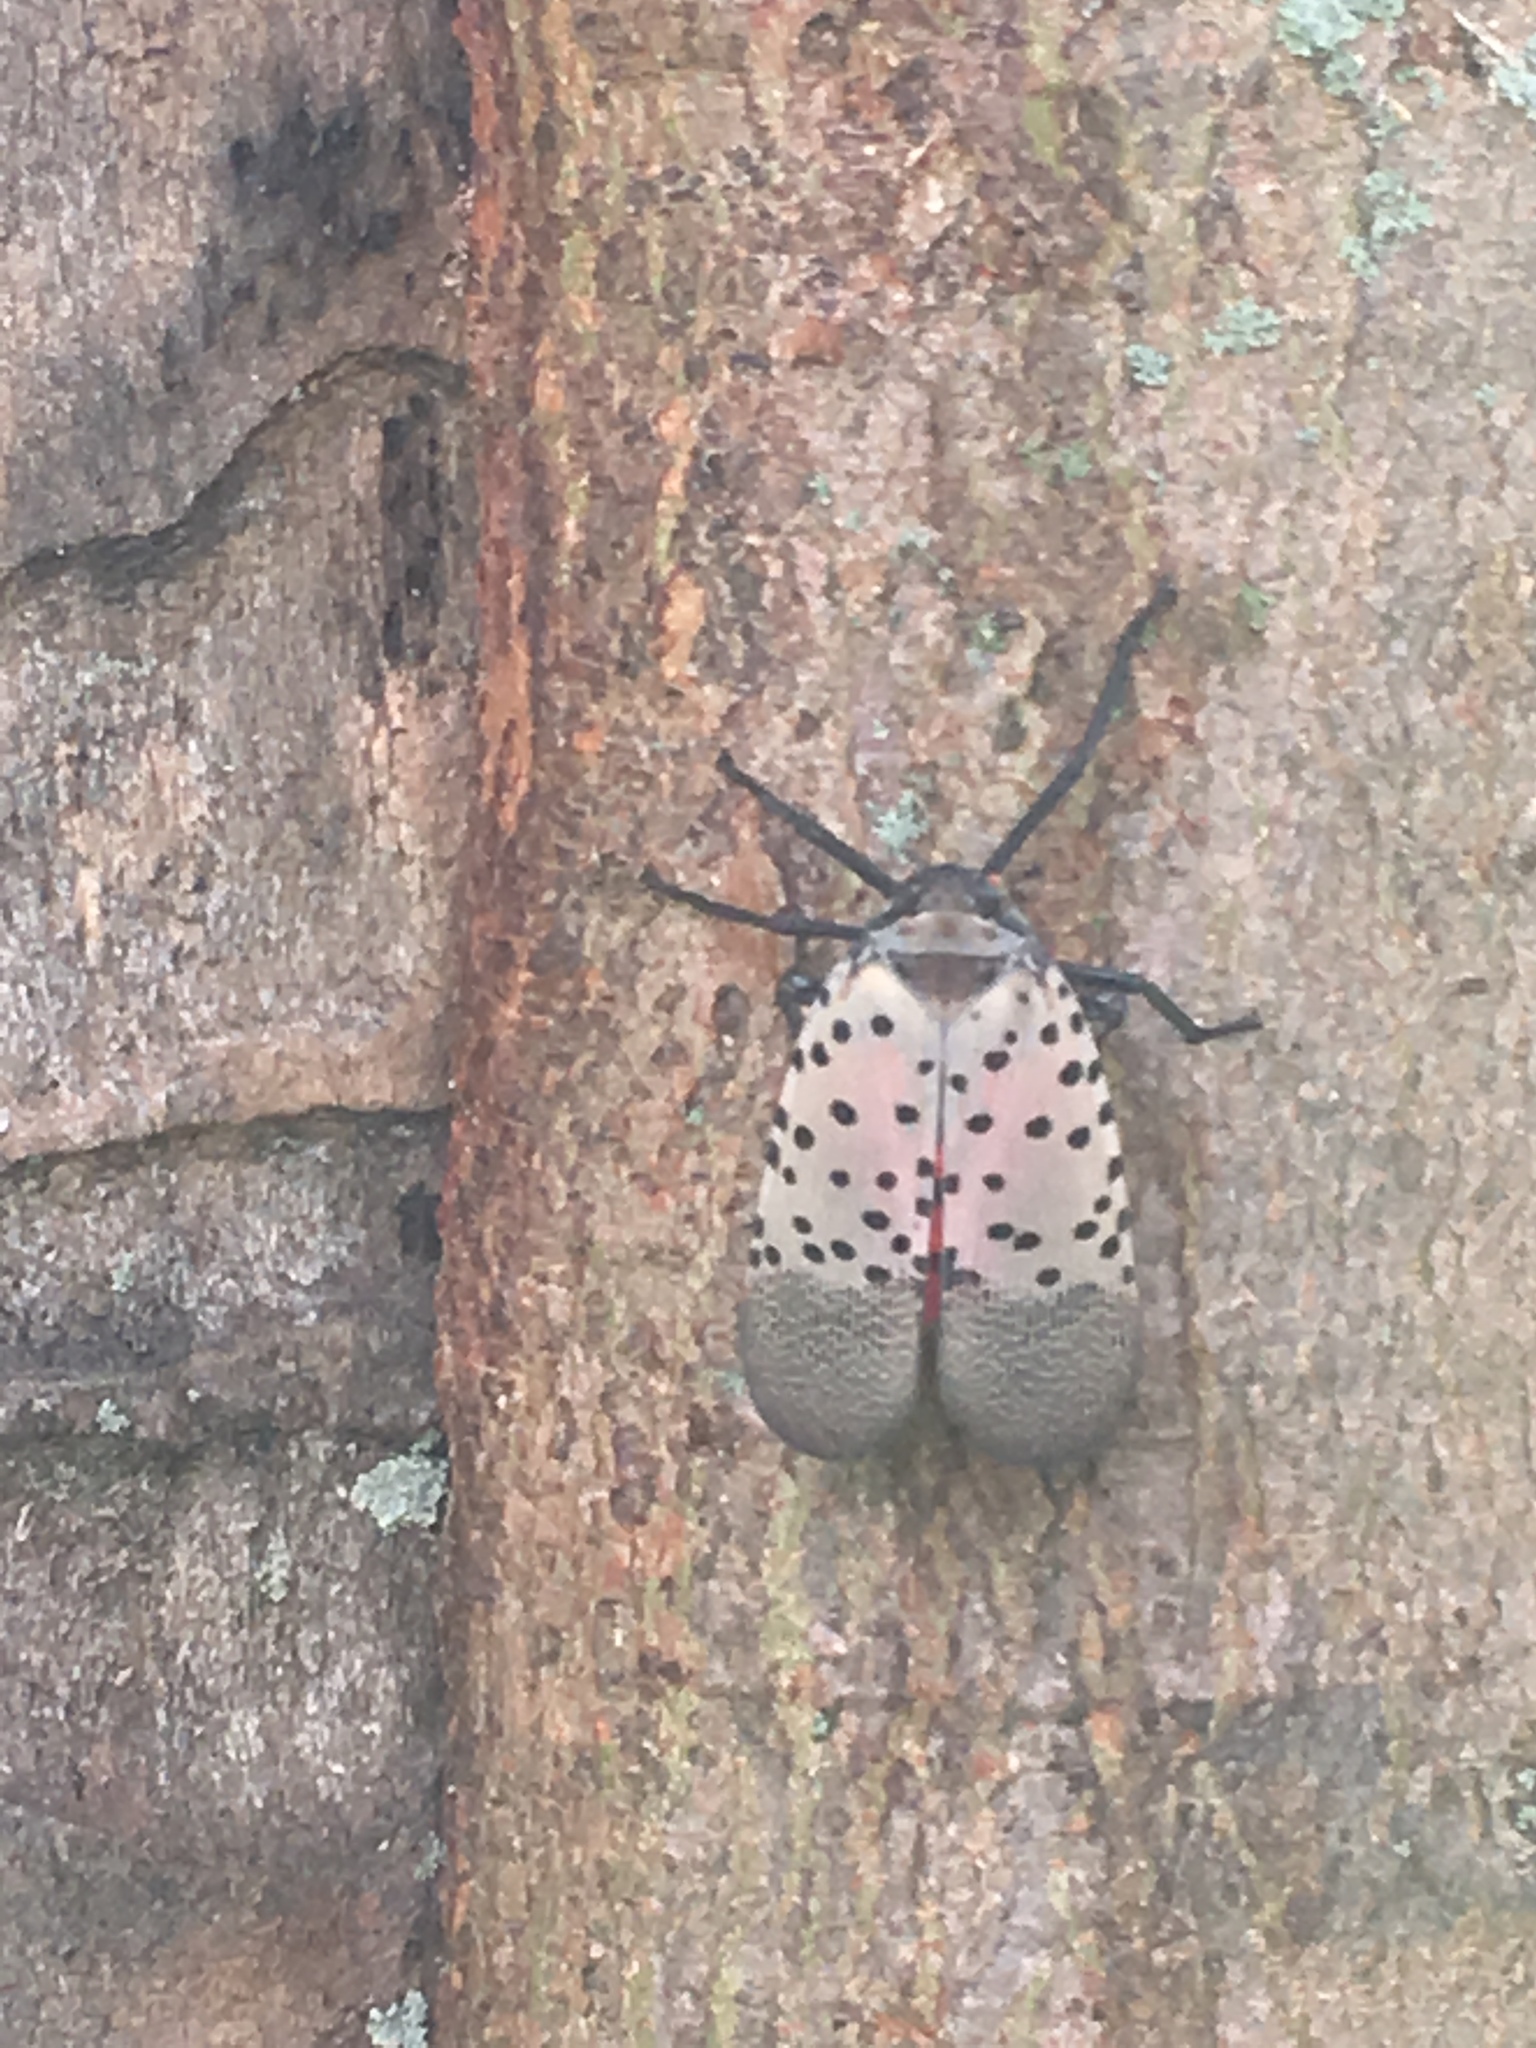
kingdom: Animalia
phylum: Arthropoda
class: Insecta
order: Hemiptera
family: Fulgoridae
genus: Lycorma
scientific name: Lycorma delicatula
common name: Spotted lanternfly
